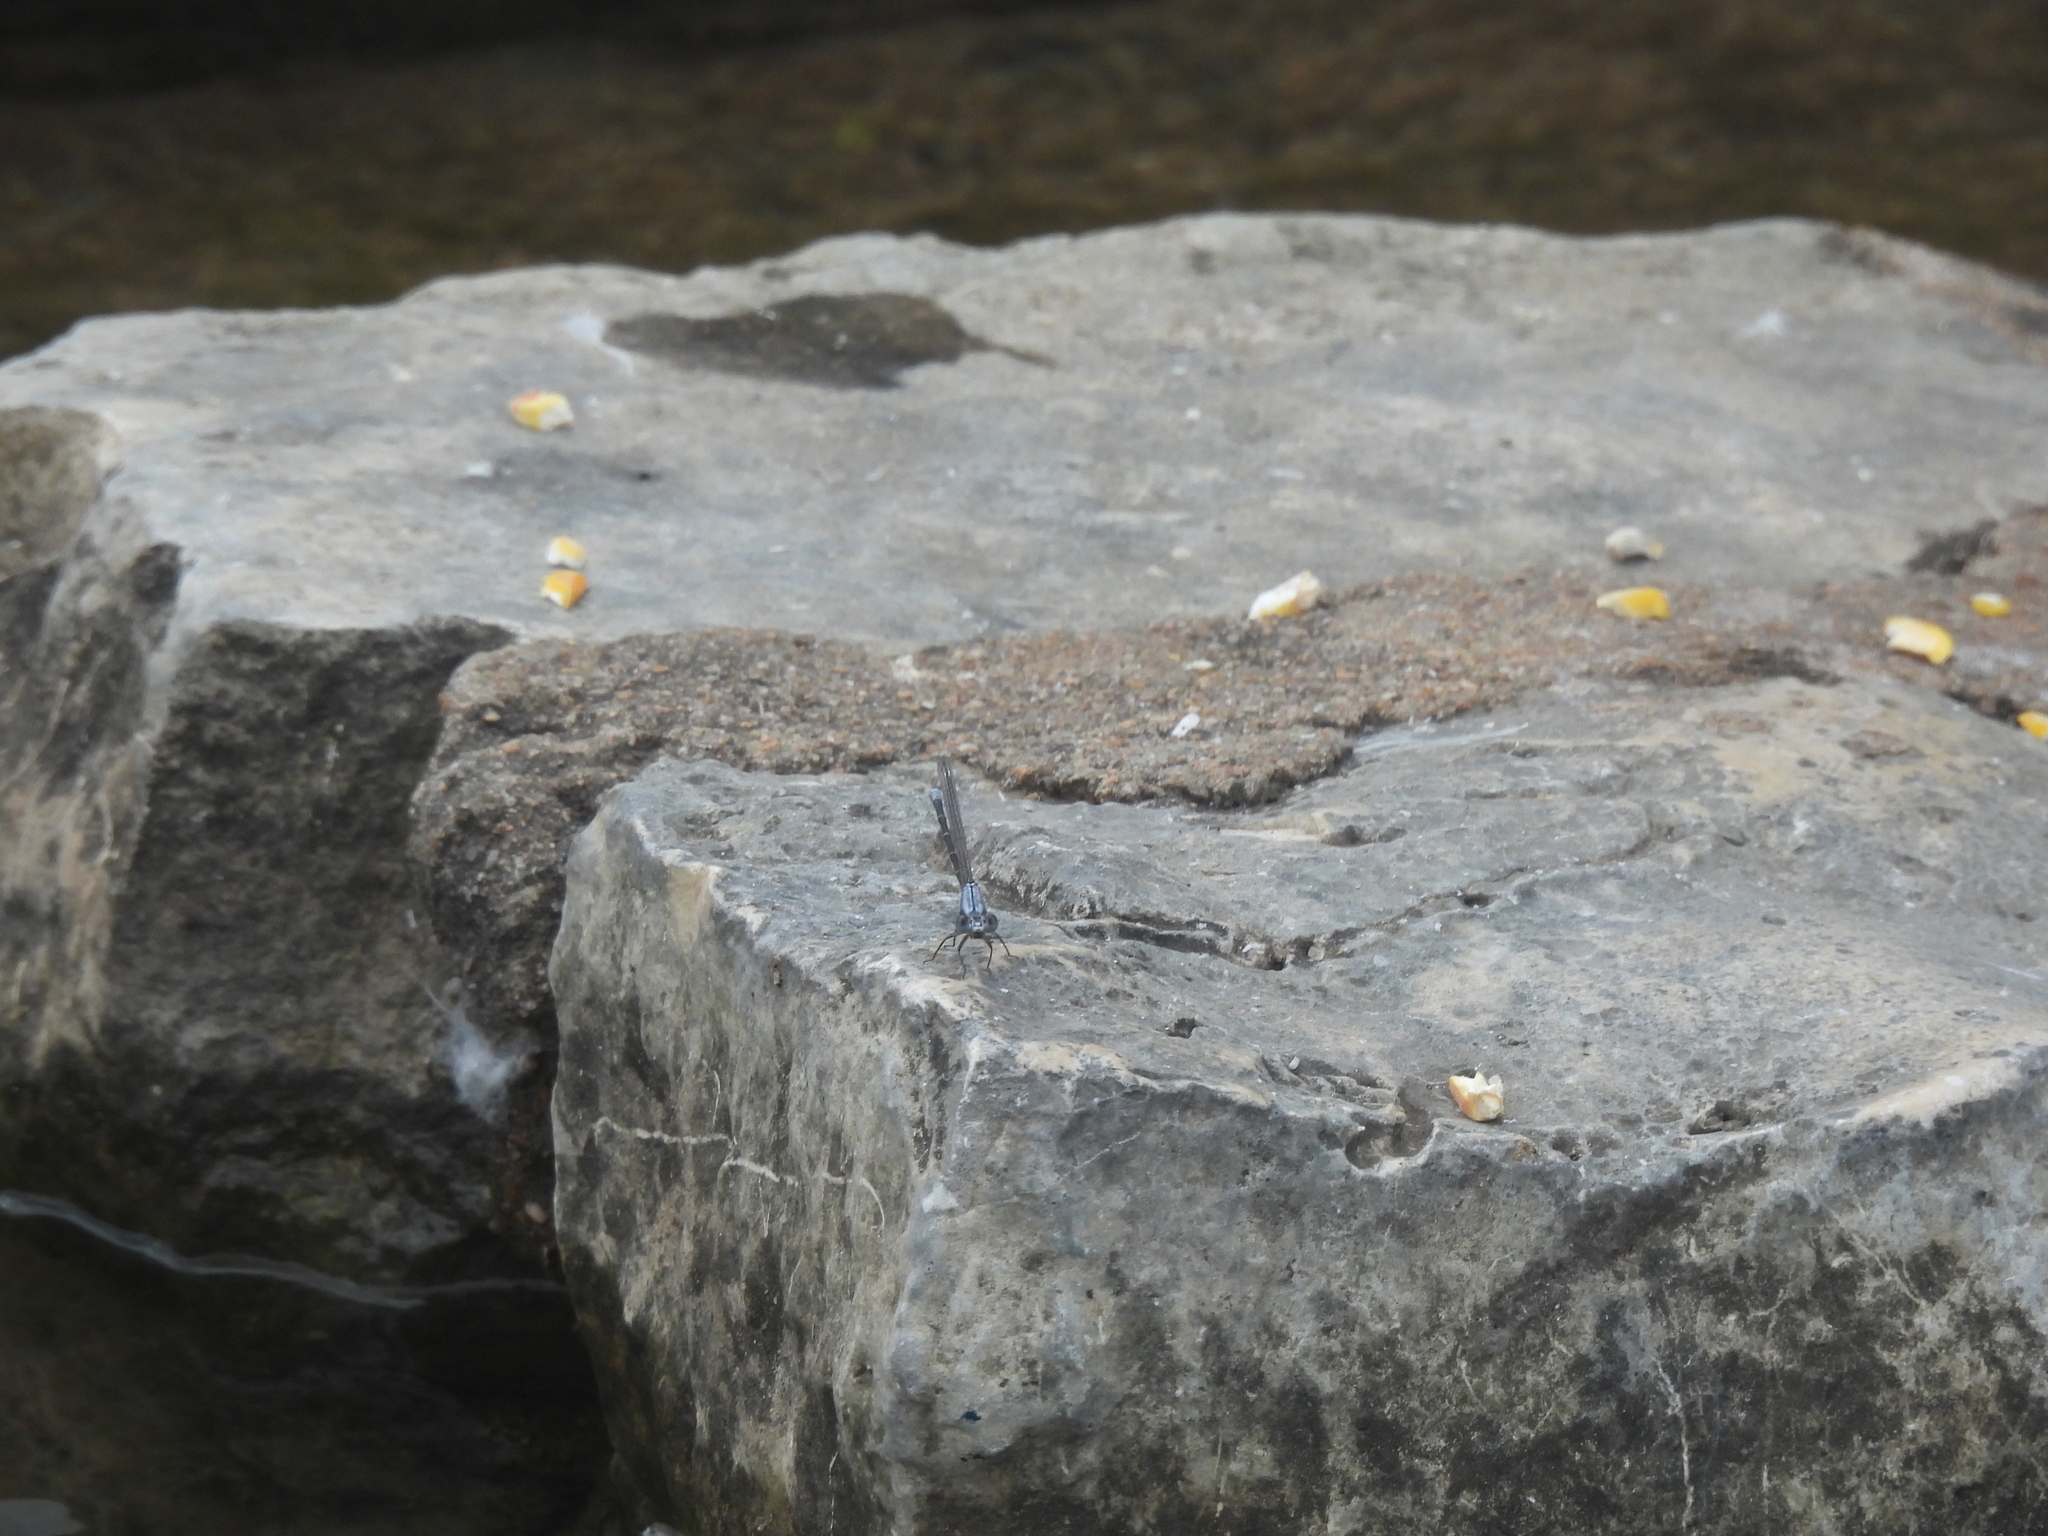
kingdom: Animalia
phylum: Arthropoda
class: Insecta
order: Odonata
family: Coenagrionidae
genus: Argia
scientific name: Argia moesta
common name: Powdered dancer
